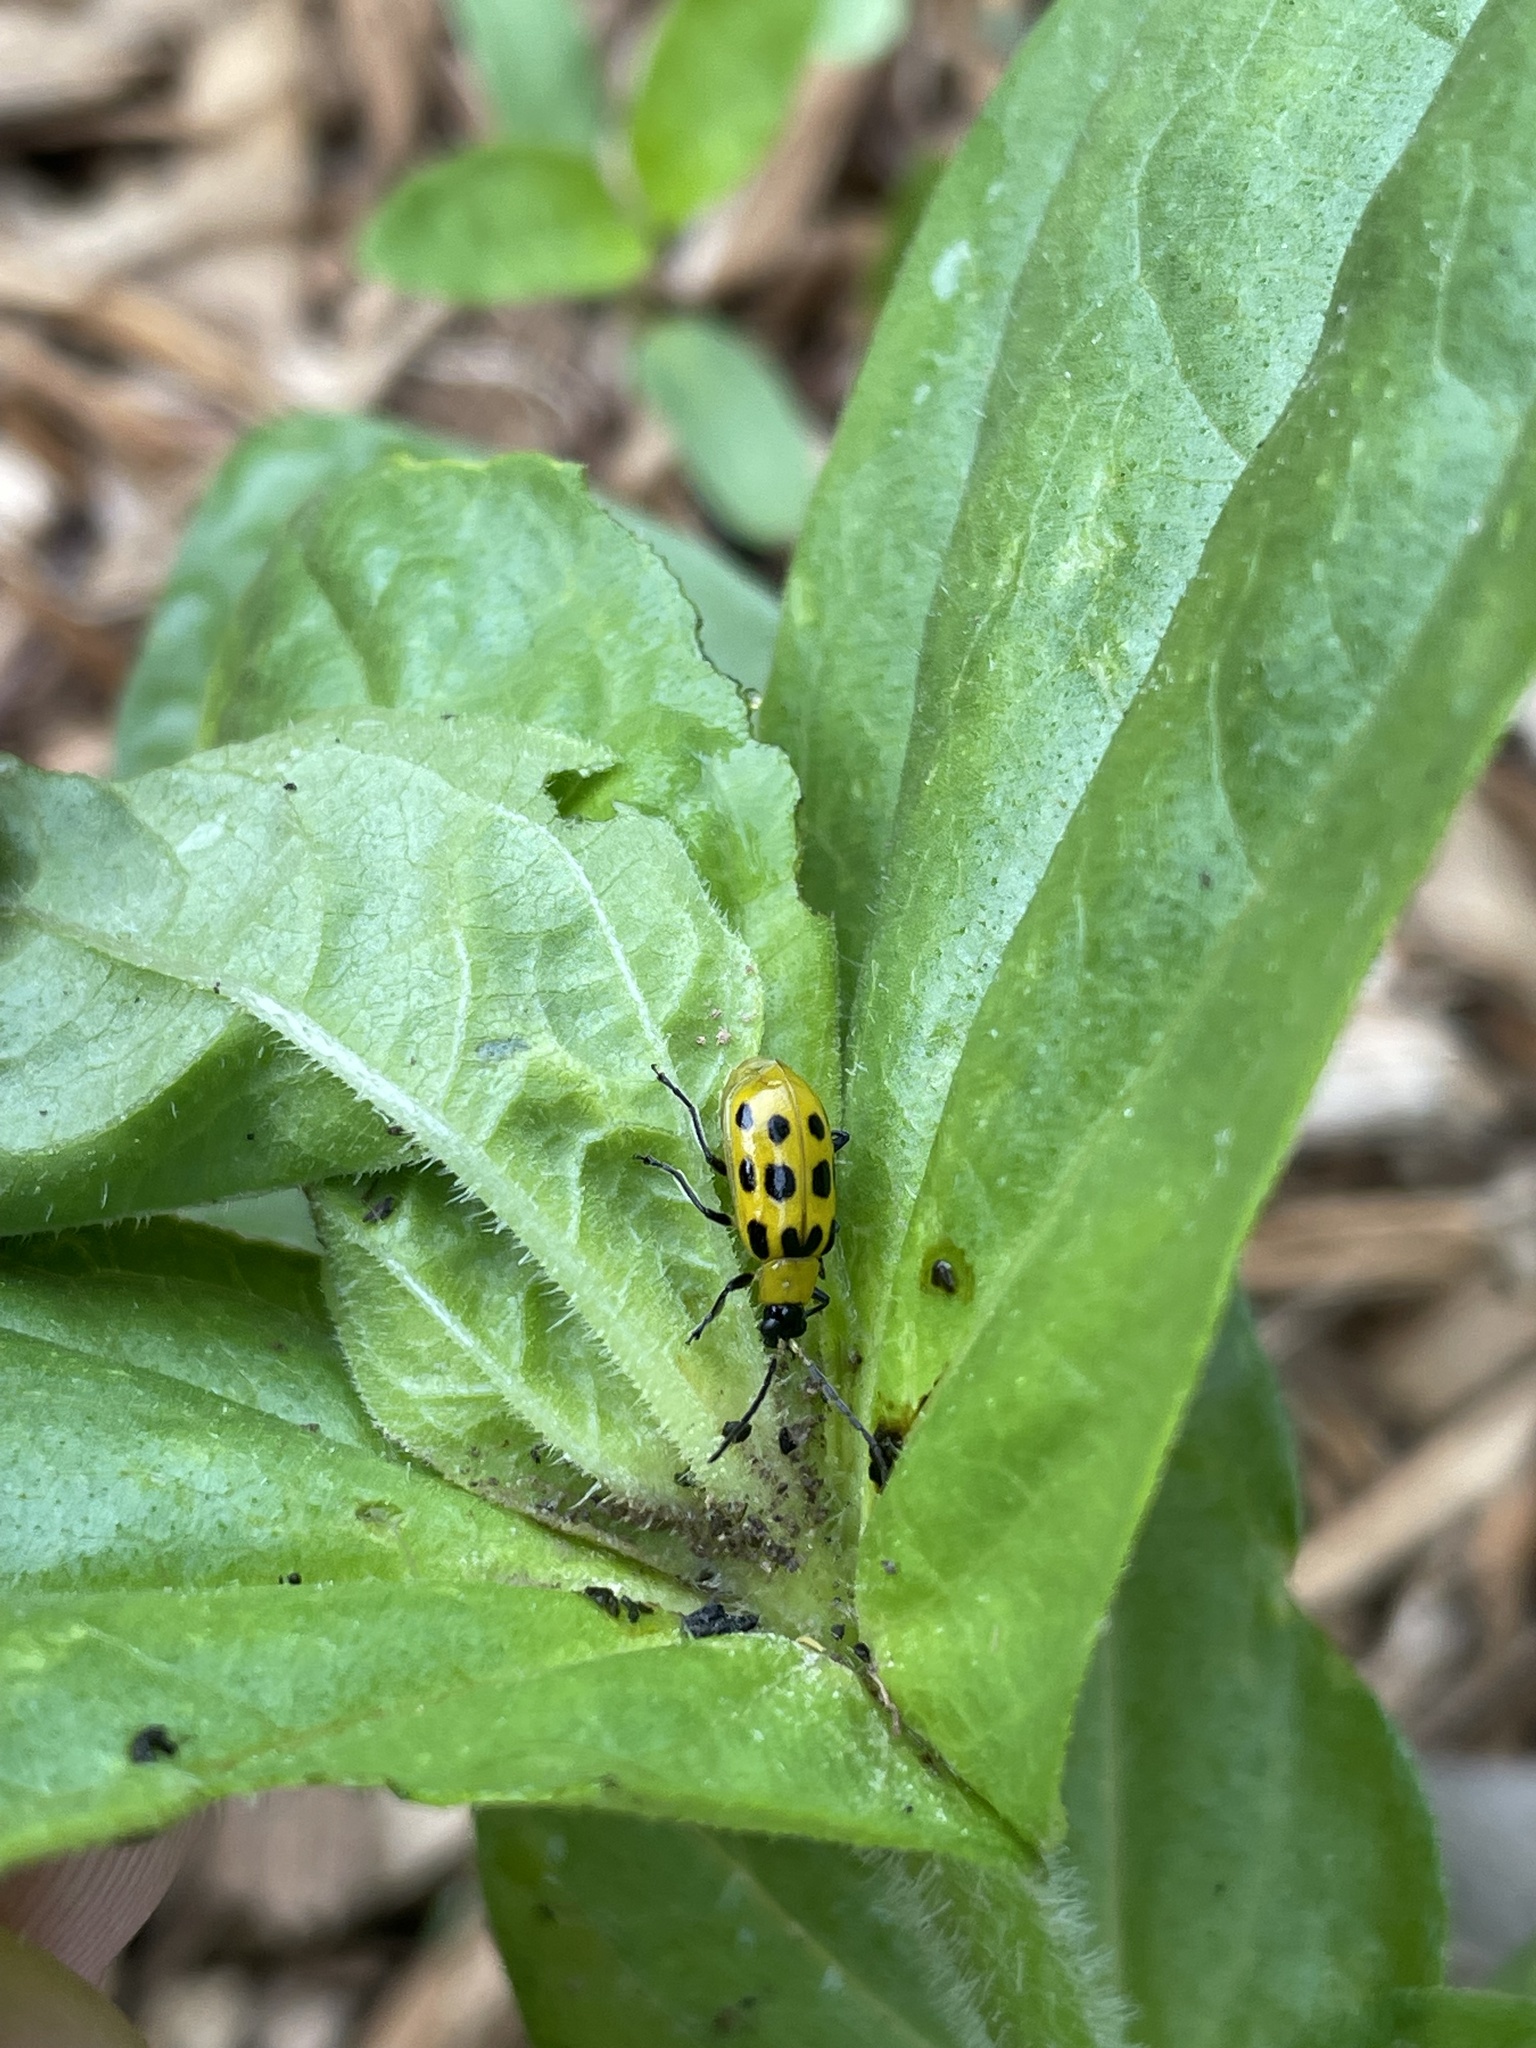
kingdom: Animalia
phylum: Arthropoda
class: Insecta
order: Coleoptera
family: Chrysomelidae
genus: Diabrotica
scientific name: Diabrotica undecimpunctata
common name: Spotted cucumber beetle
